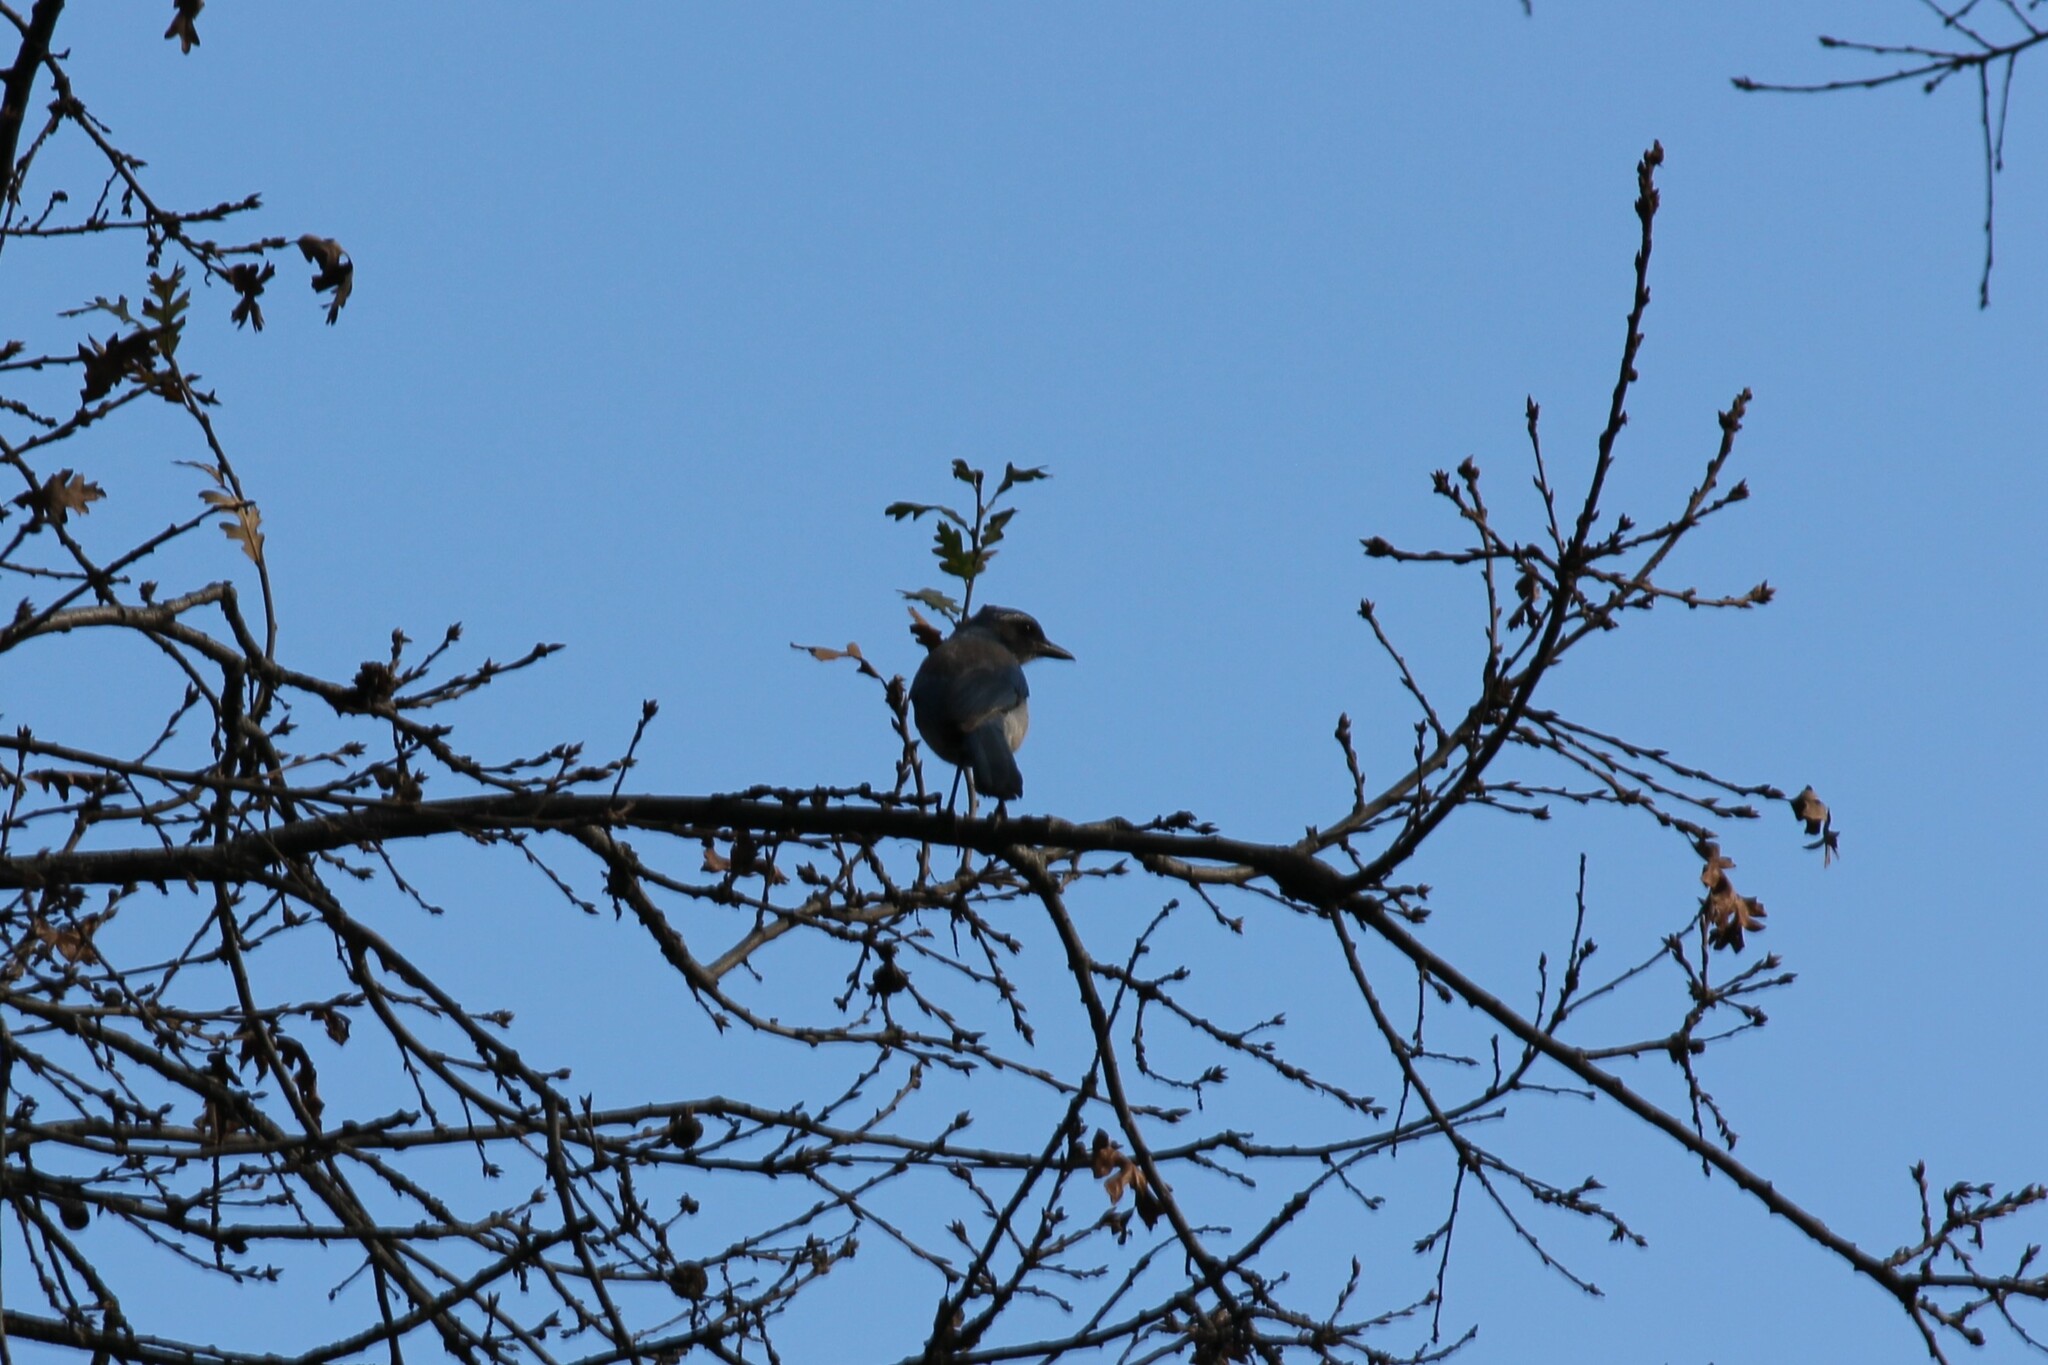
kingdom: Animalia
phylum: Chordata
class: Aves
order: Passeriformes
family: Corvidae
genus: Aphelocoma
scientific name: Aphelocoma californica
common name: California scrub-jay
